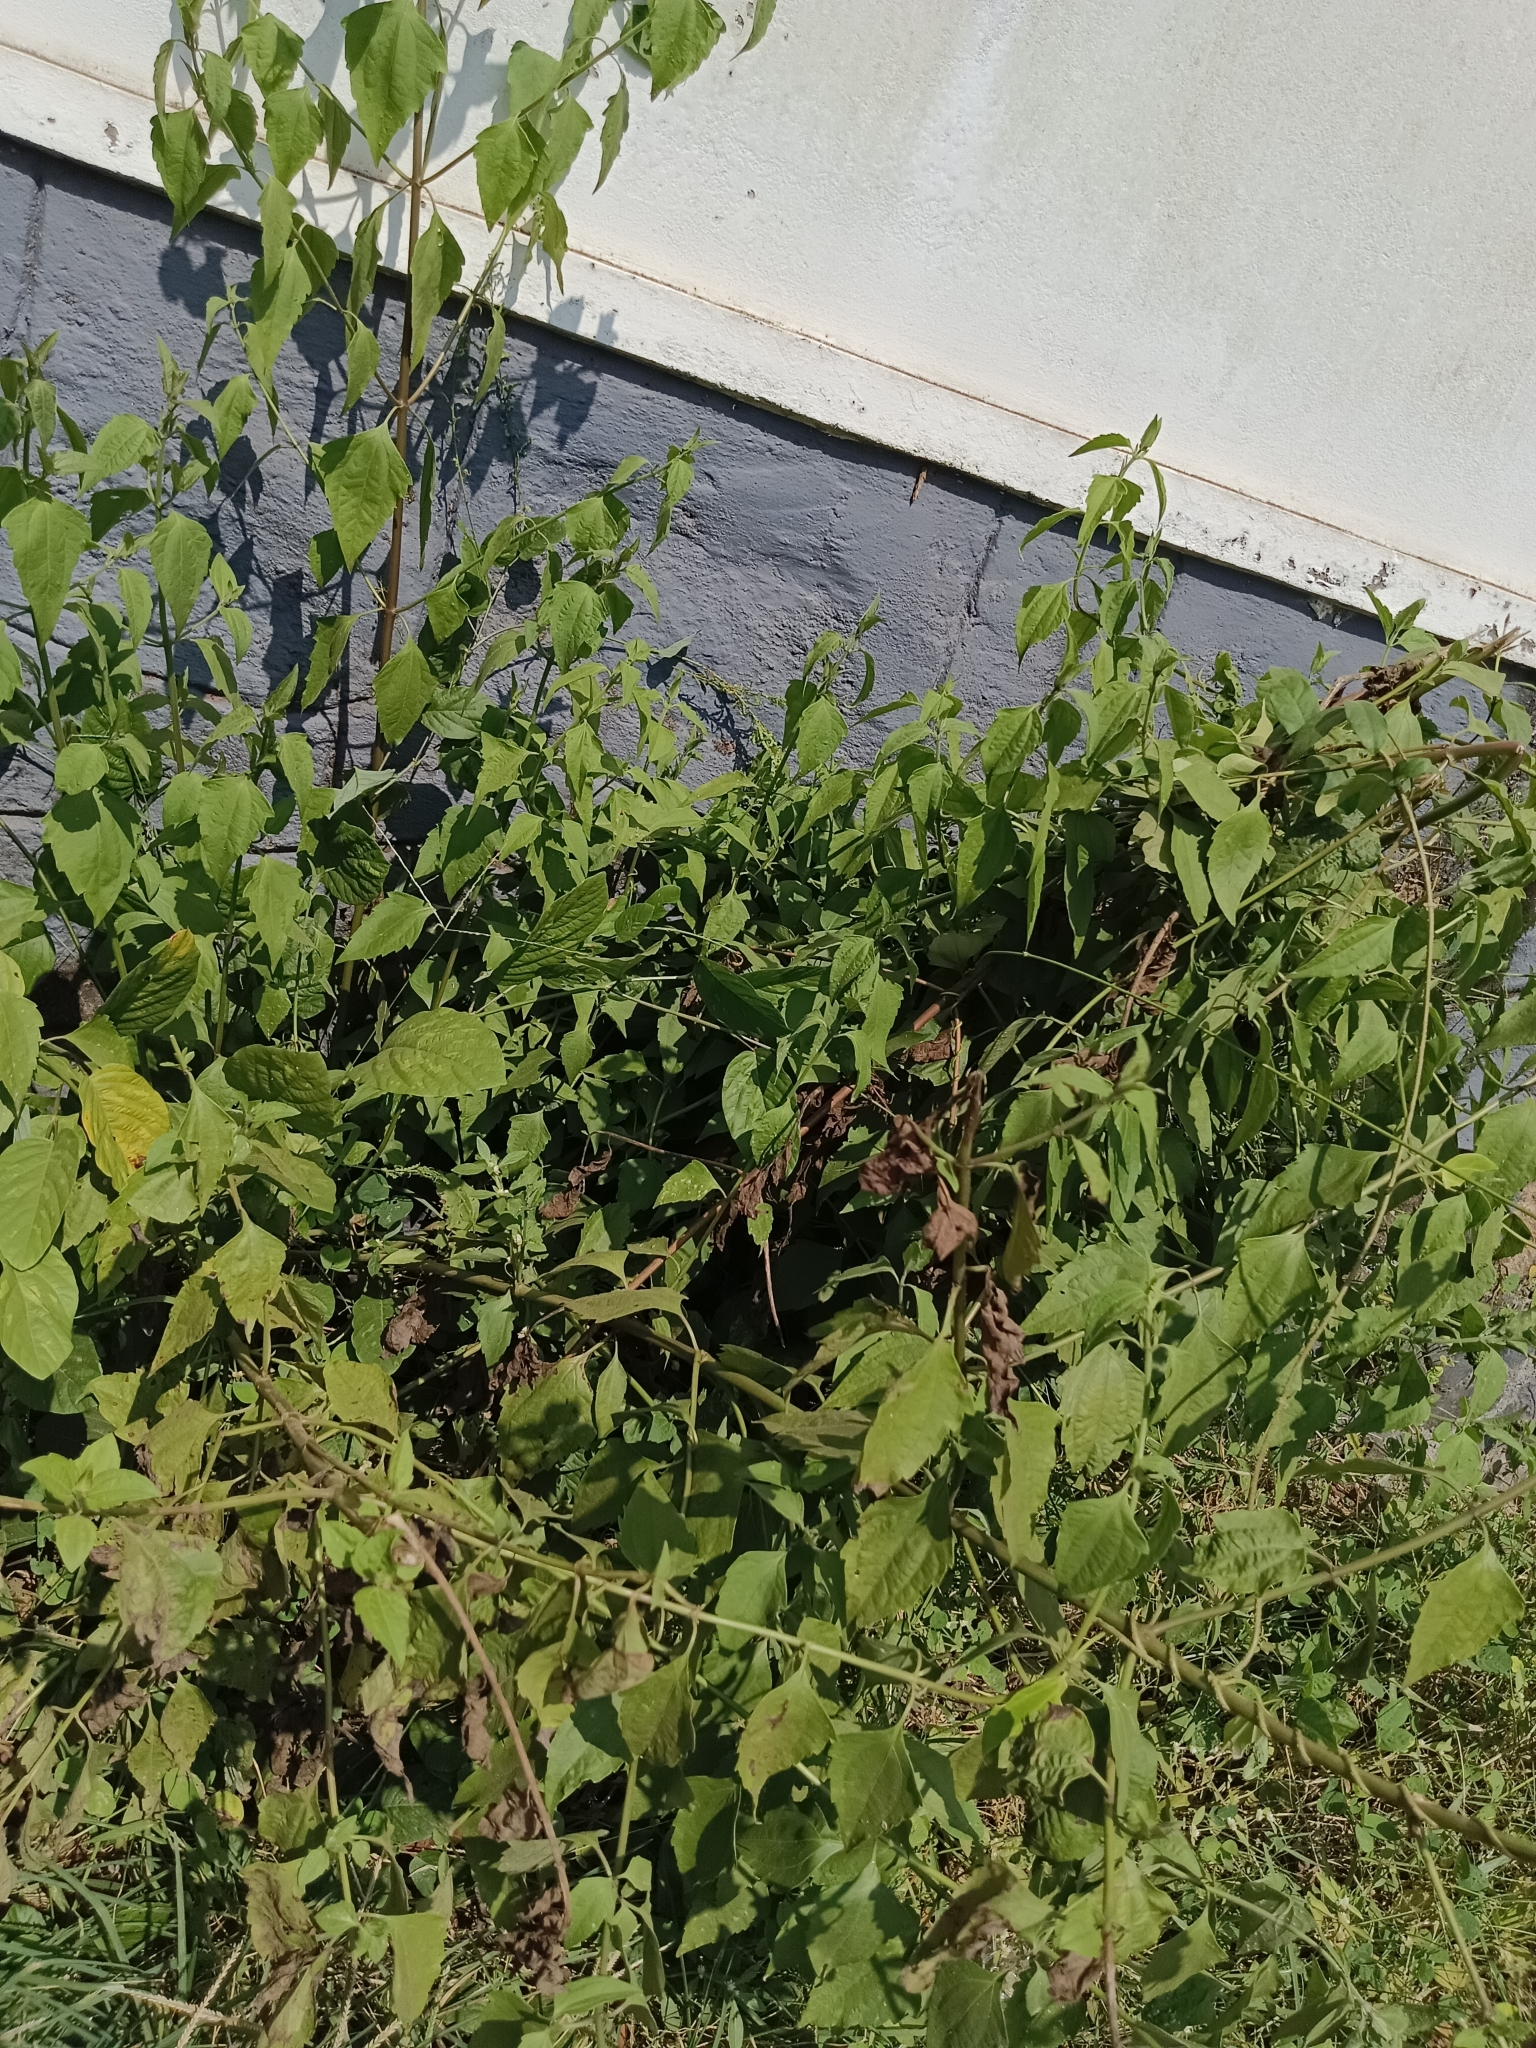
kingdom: Plantae
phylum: Tracheophyta
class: Magnoliopsida
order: Asterales
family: Asteraceae
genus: Chromolaena
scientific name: Chromolaena odorata
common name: Siamweed
